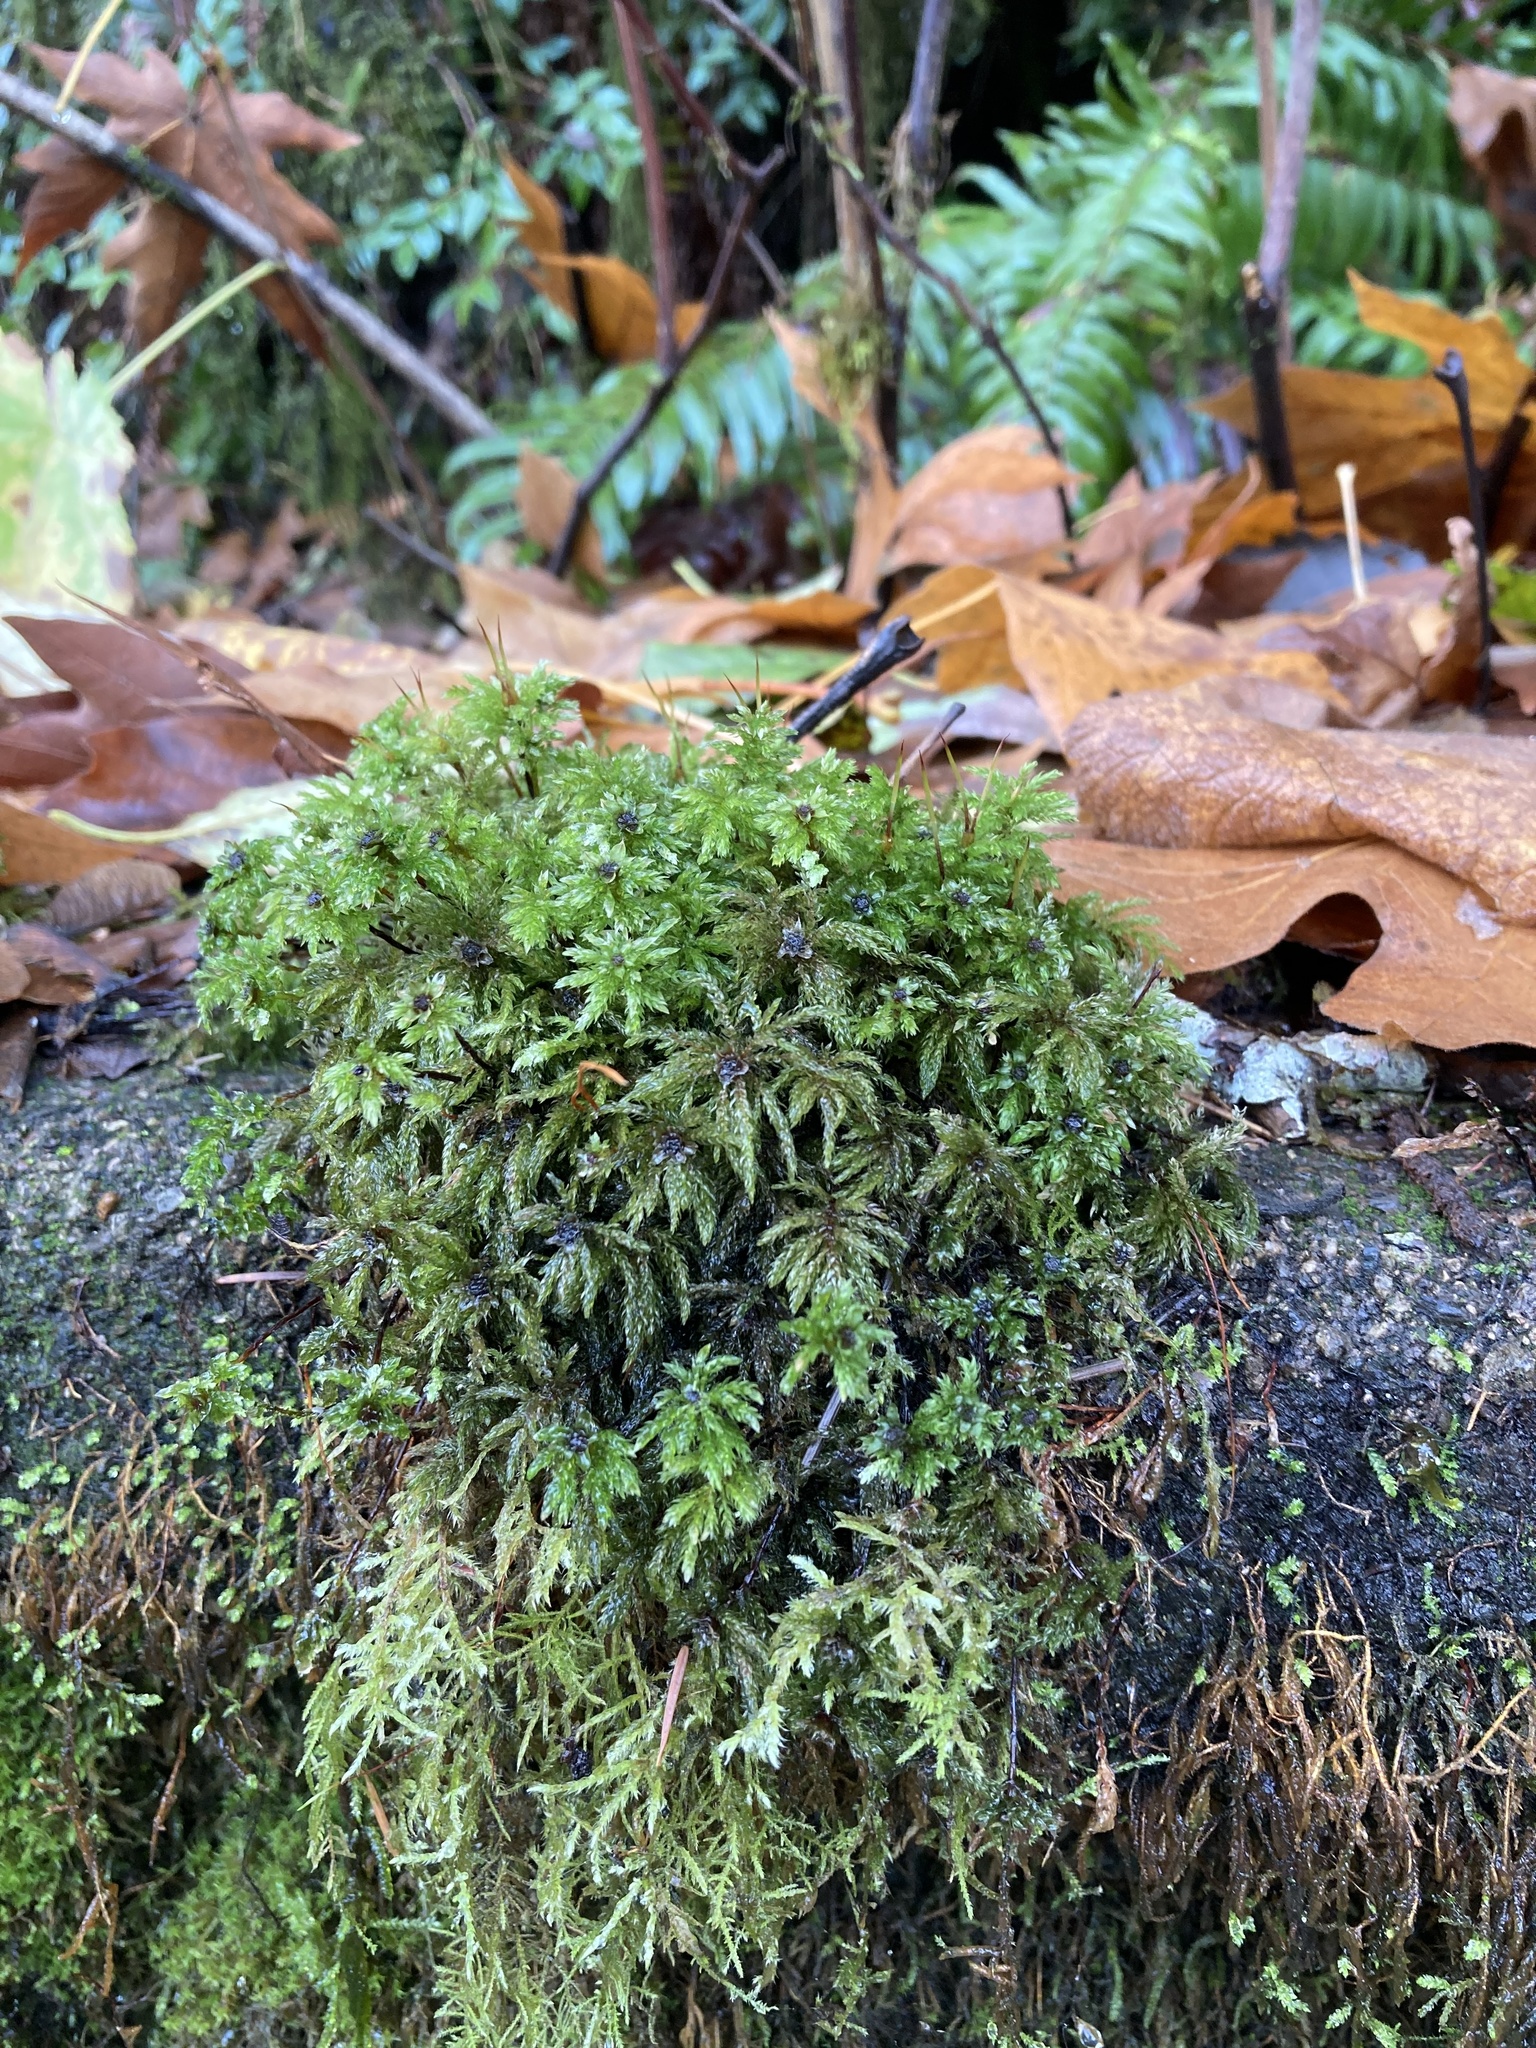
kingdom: Plantae
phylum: Bryophyta
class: Bryopsida
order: Bryales
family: Mniaceae
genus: Leucolepis
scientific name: Leucolepis acanthoneura
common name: Leucolepis umbrella moss
